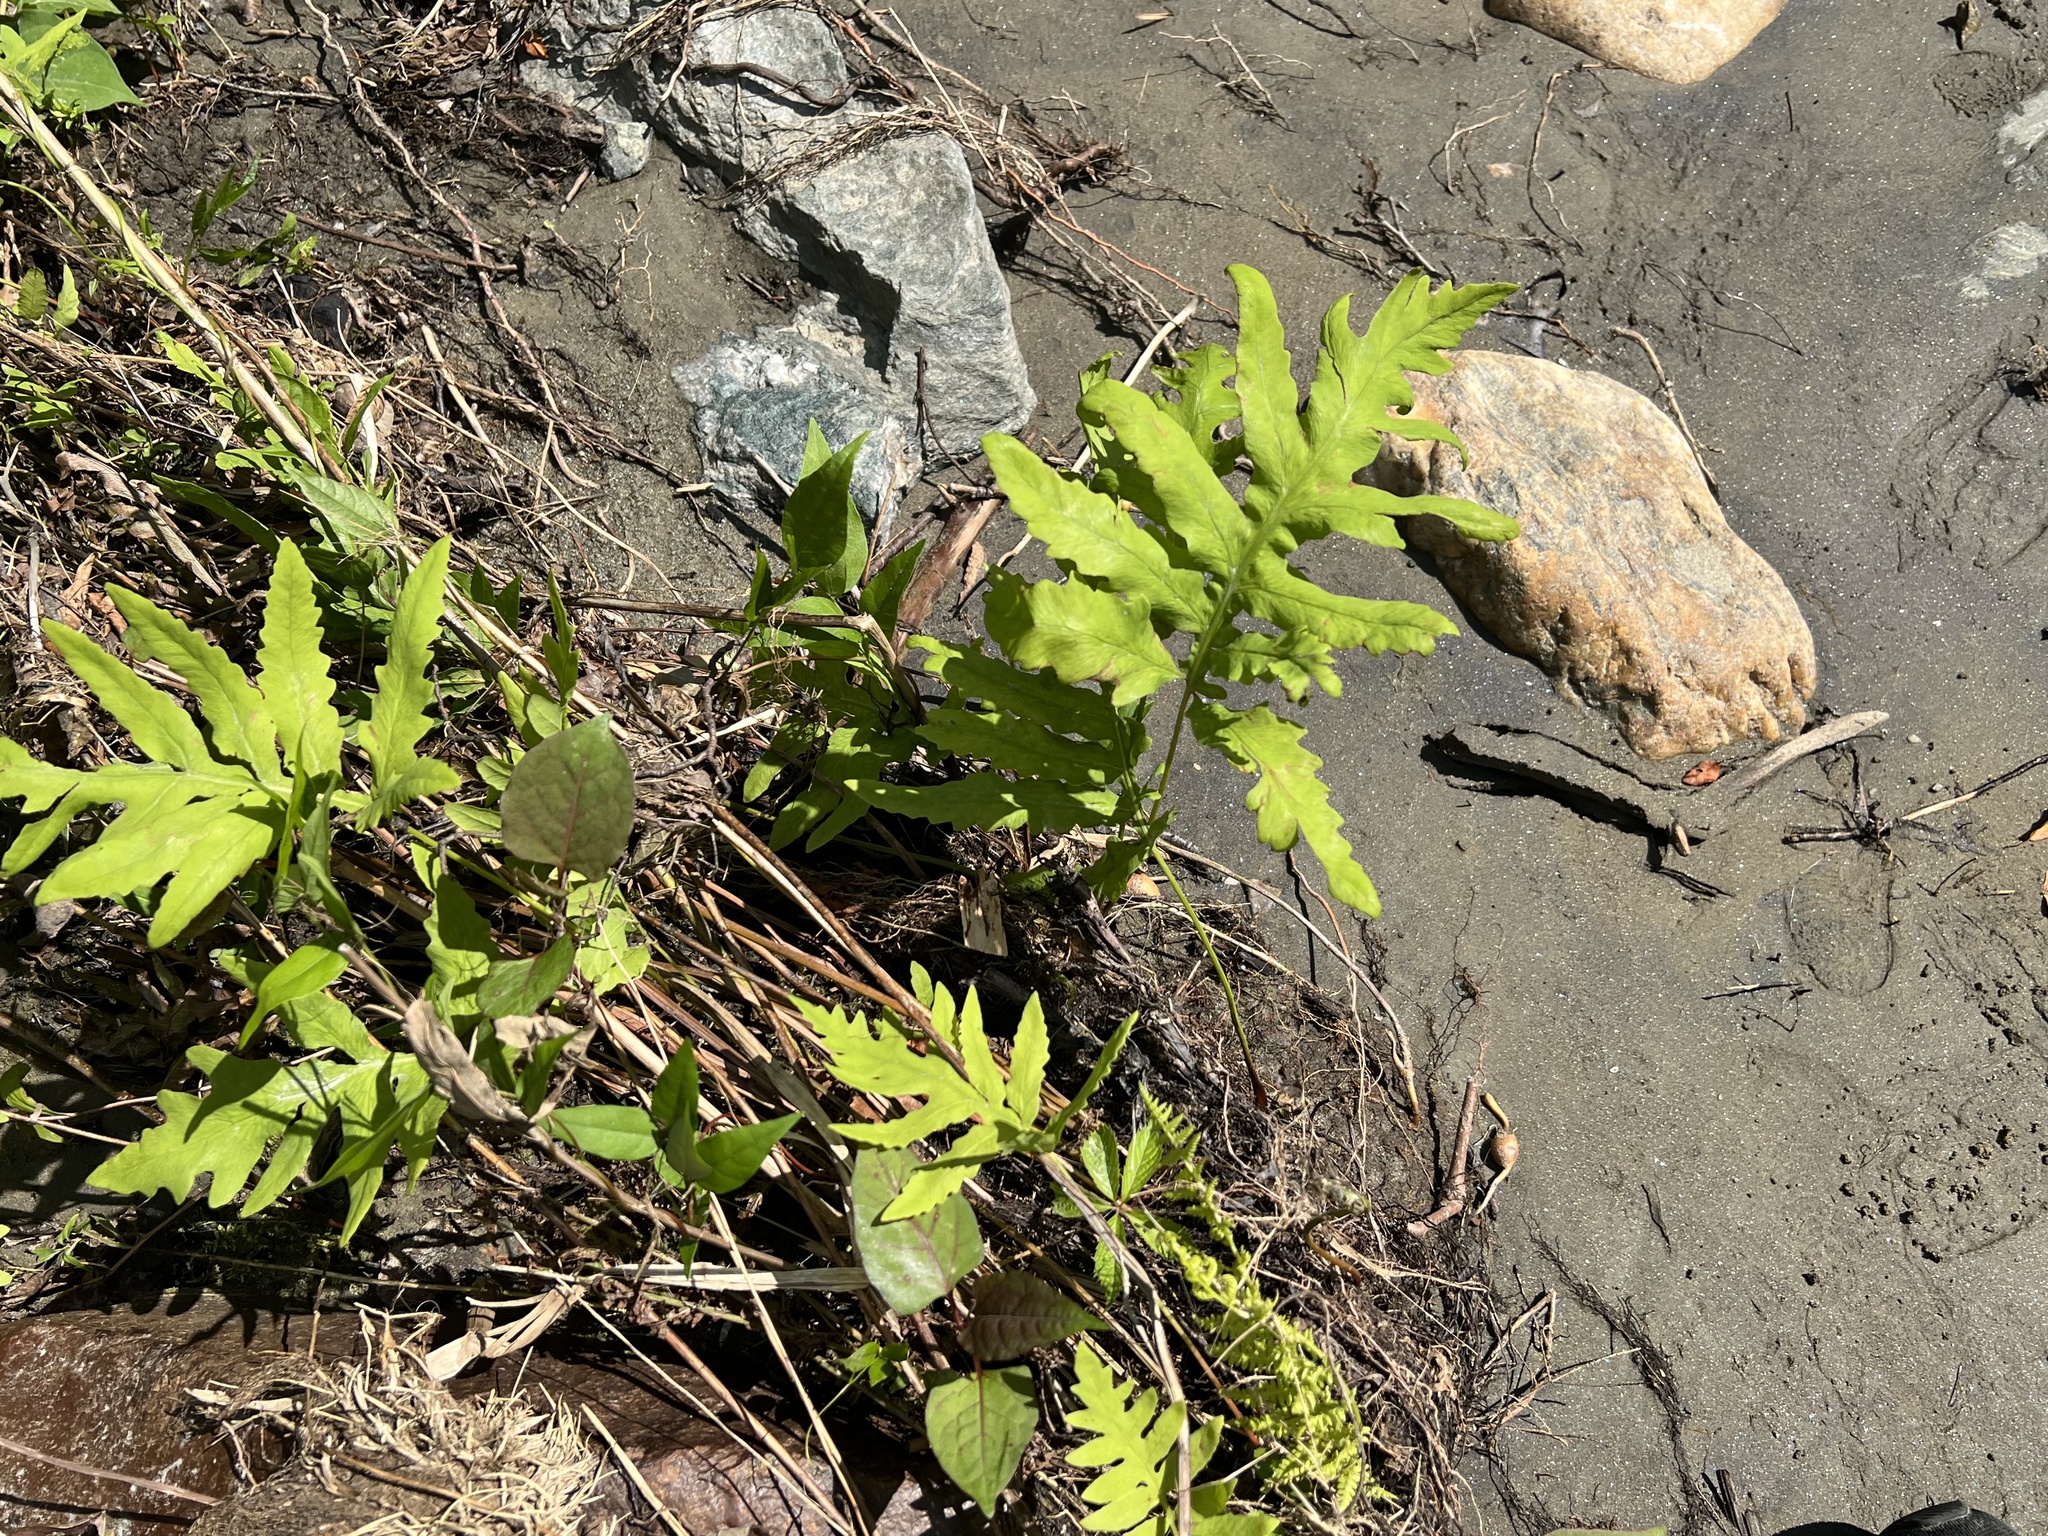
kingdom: Plantae
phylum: Tracheophyta
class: Polypodiopsida
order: Polypodiales
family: Onocleaceae
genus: Onoclea
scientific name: Onoclea sensibilis
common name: Sensitive fern
